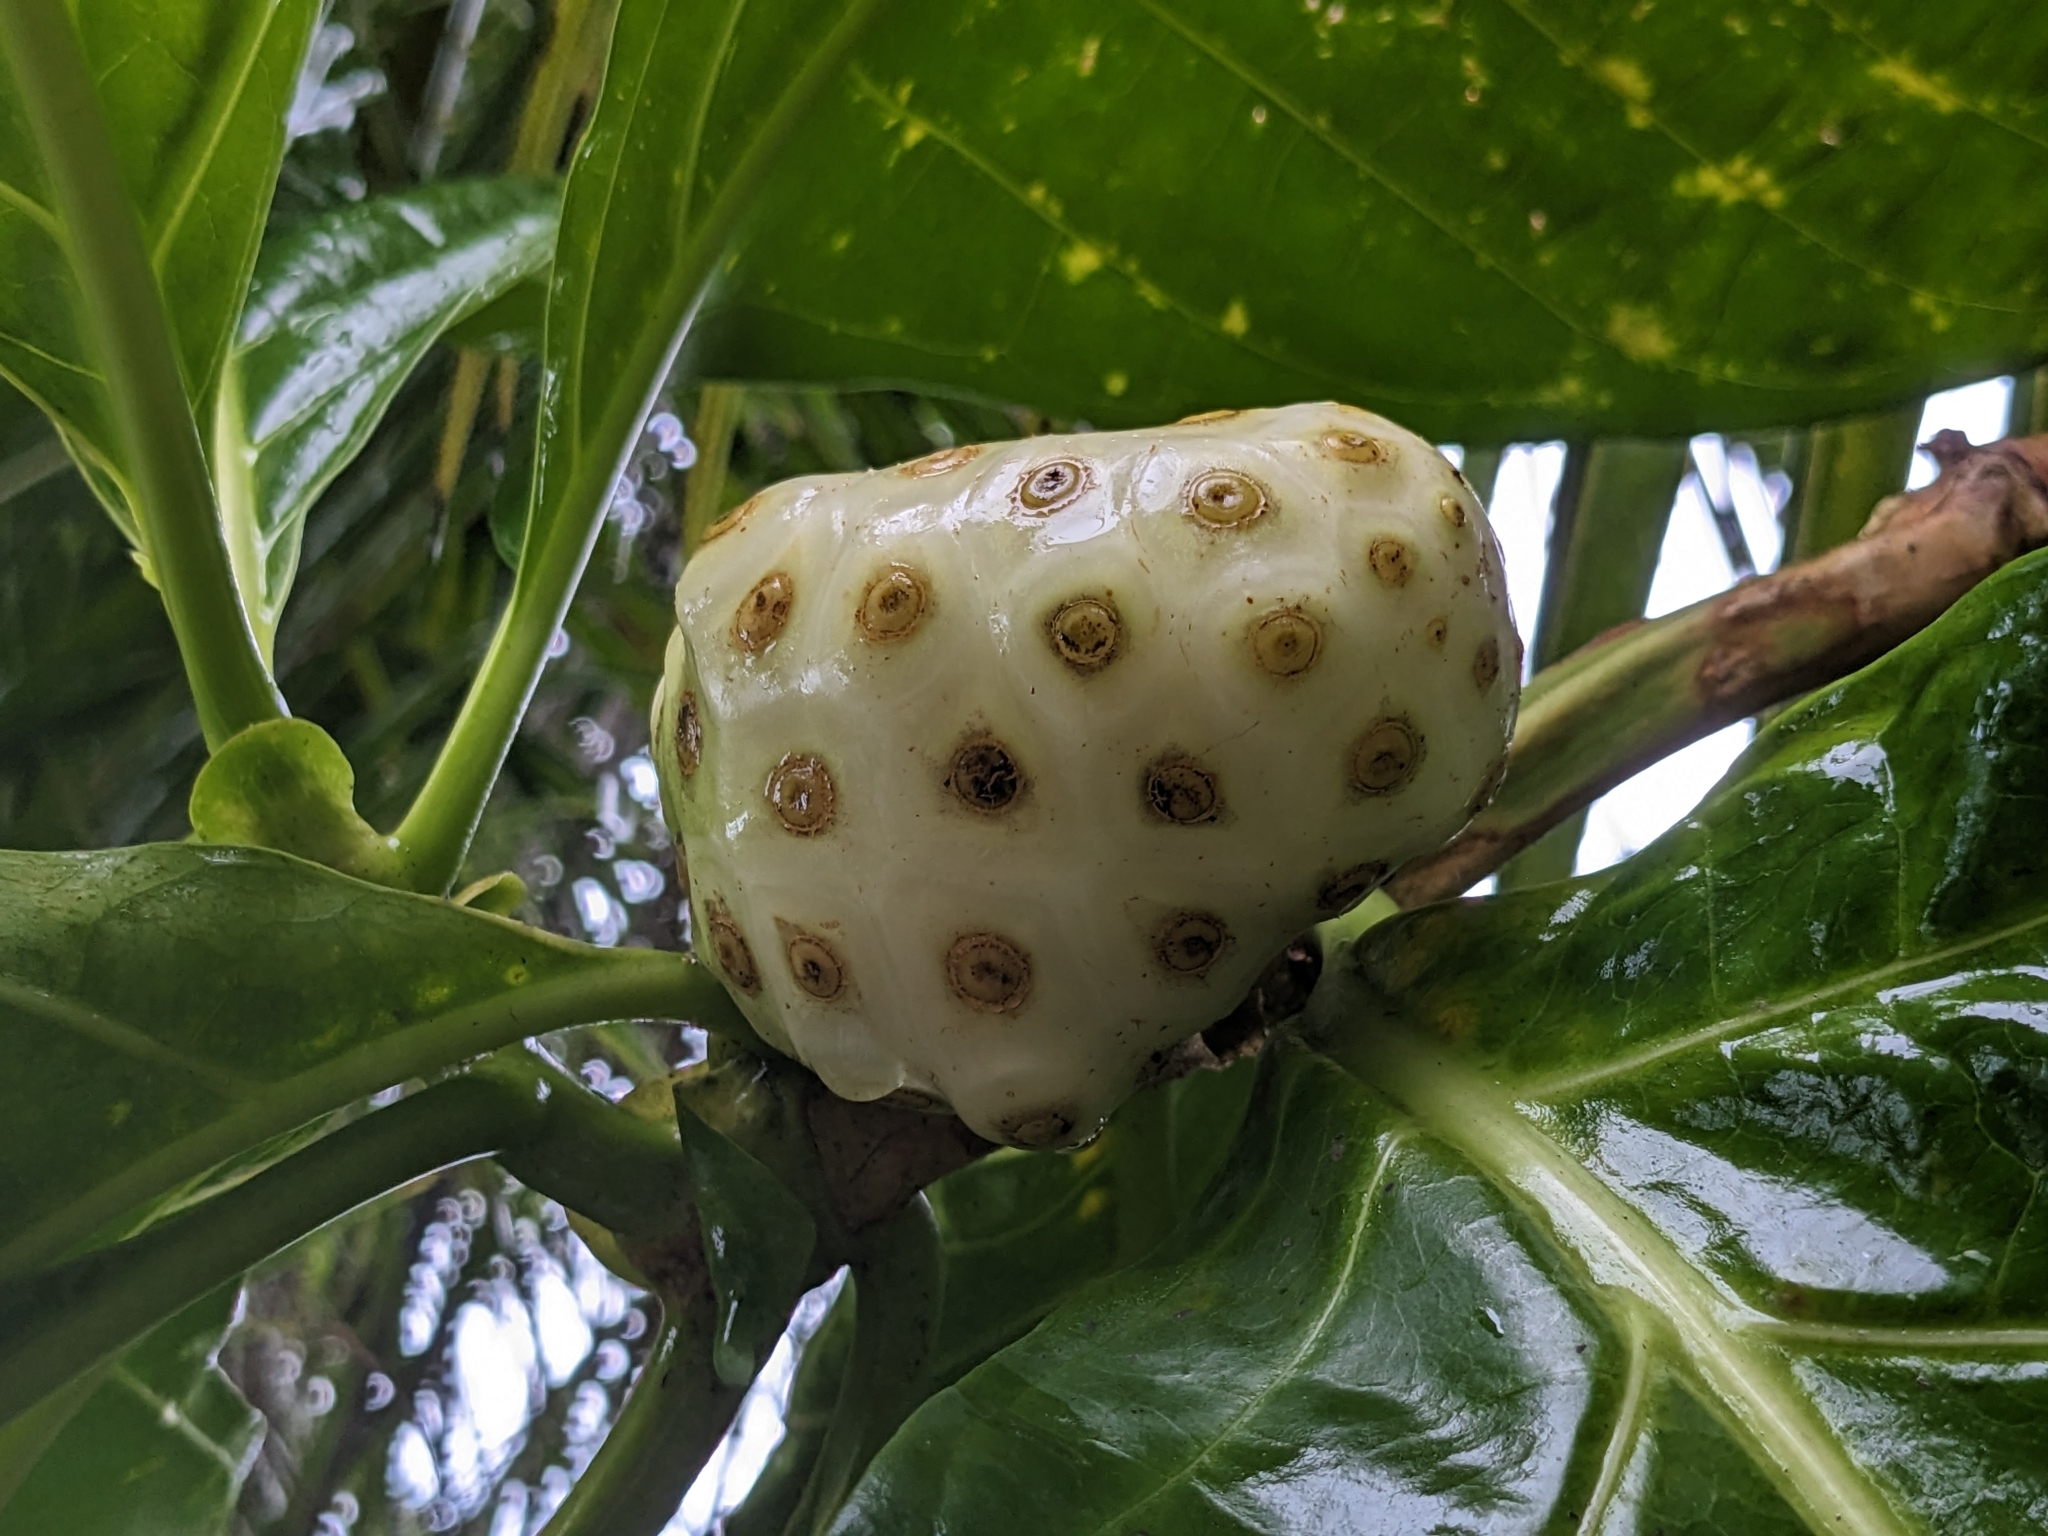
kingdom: Plantae
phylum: Tracheophyta
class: Magnoliopsida
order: Gentianales
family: Rubiaceae
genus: Morinda
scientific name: Morinda citrifolia
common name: Indian-mulberry
